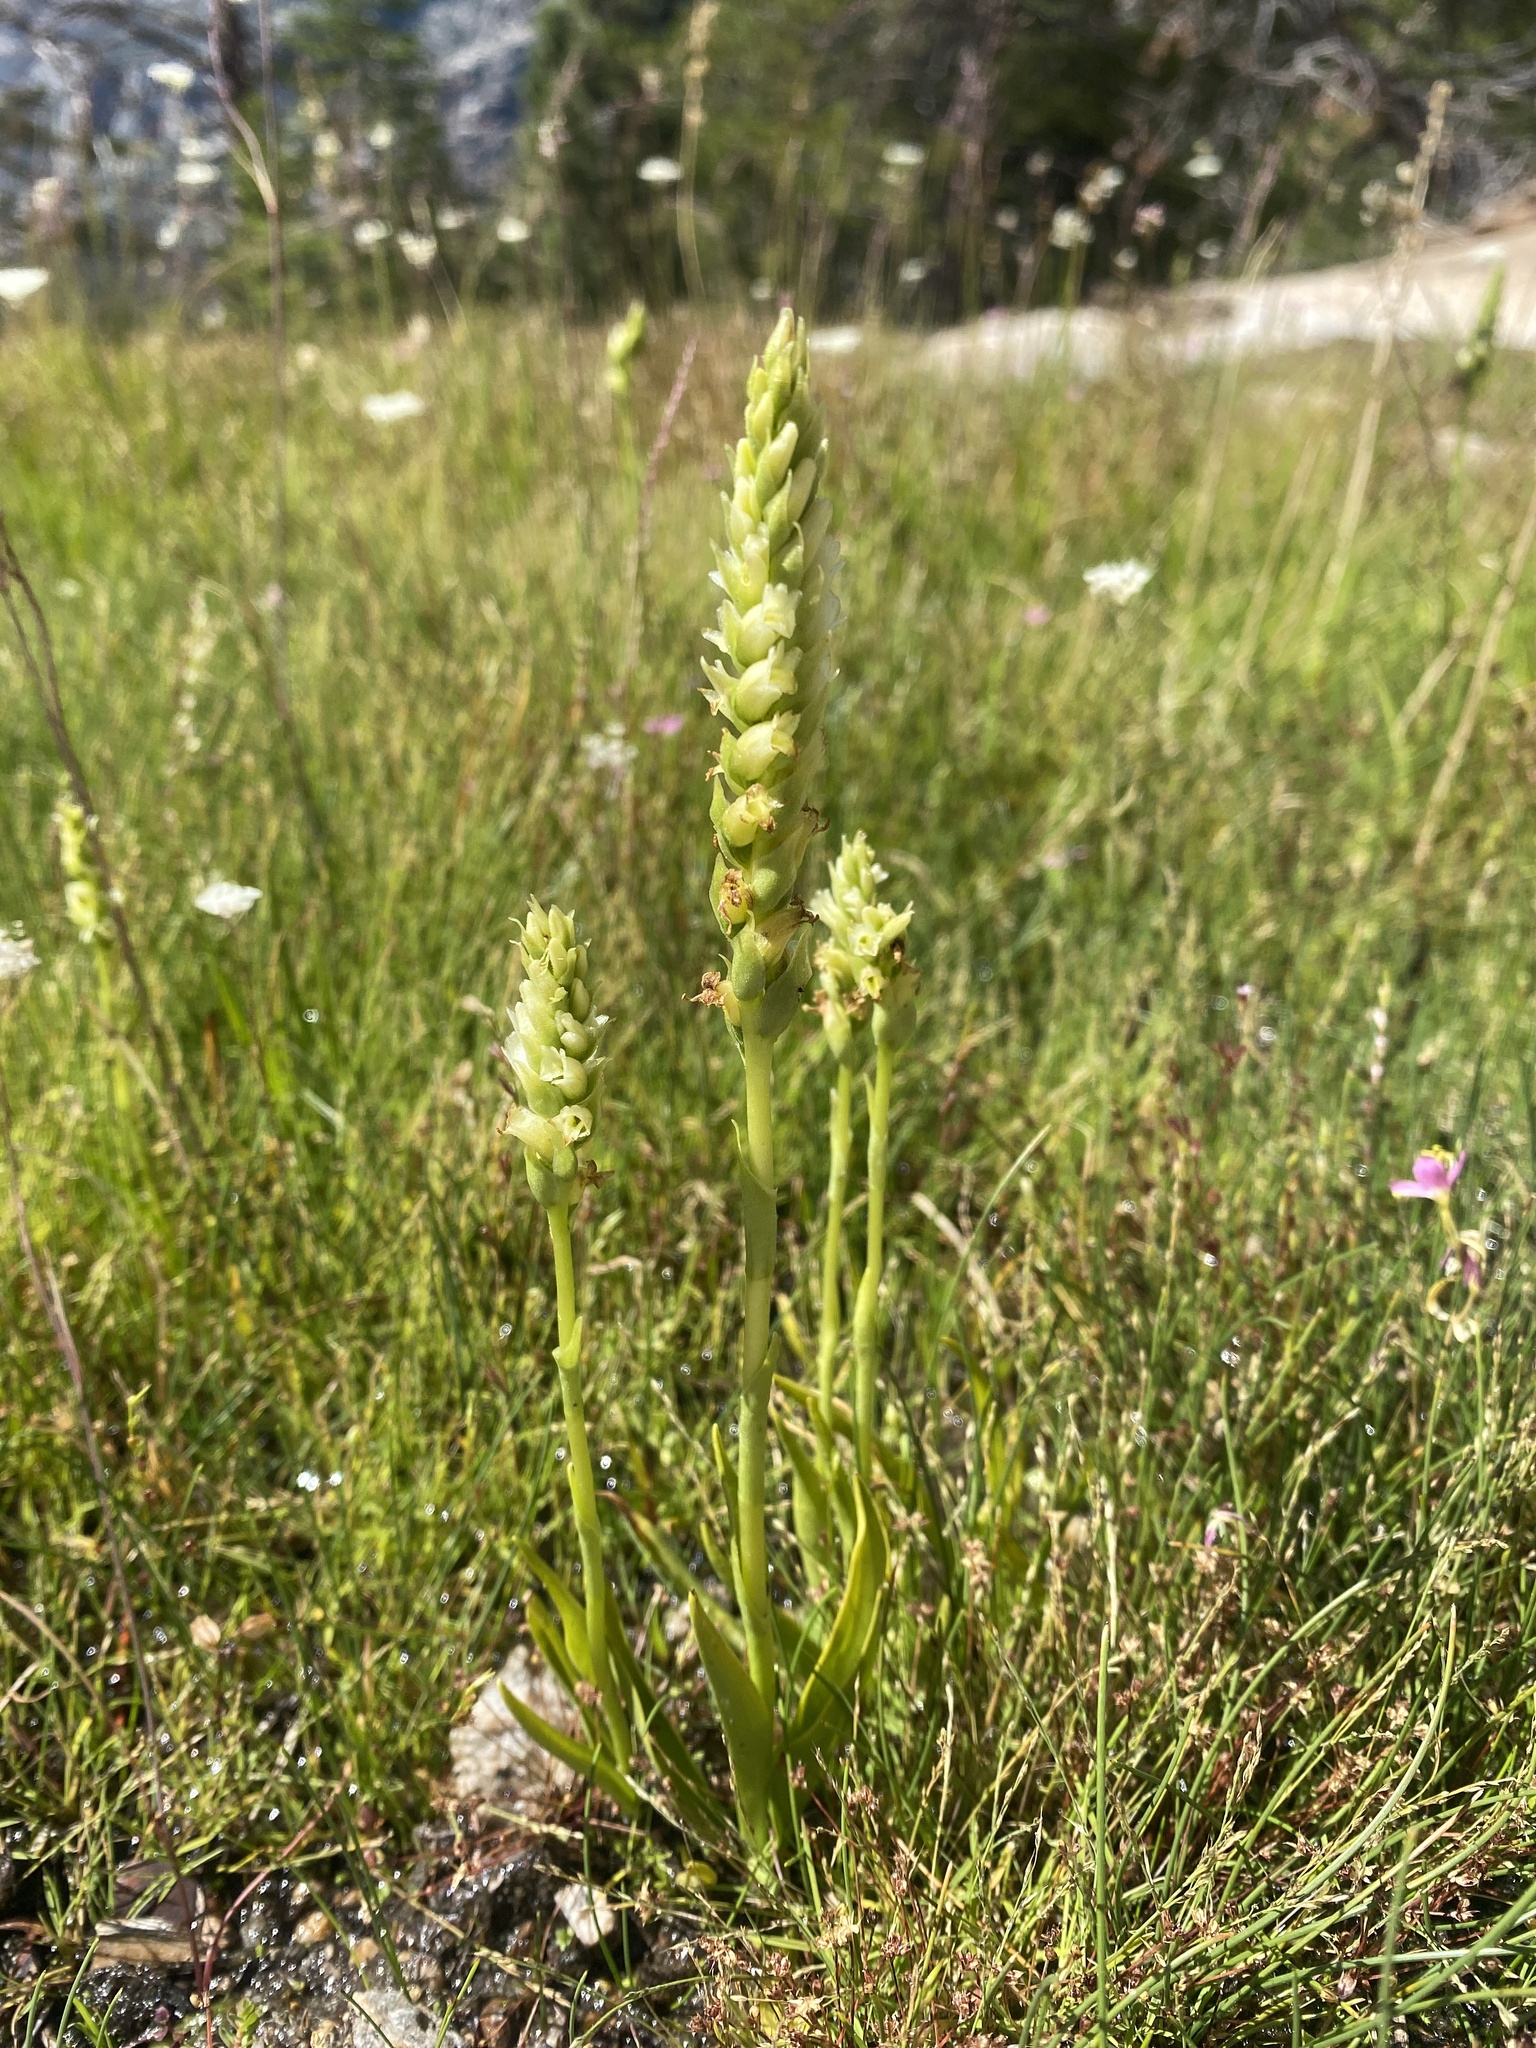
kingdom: Plantae
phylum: Tracheophyta
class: Liliopsida
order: Asparagales
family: Orchidaceae
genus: Spiranthes
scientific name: Spiranthes romanzoffiana
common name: Irish lady's-tresses
